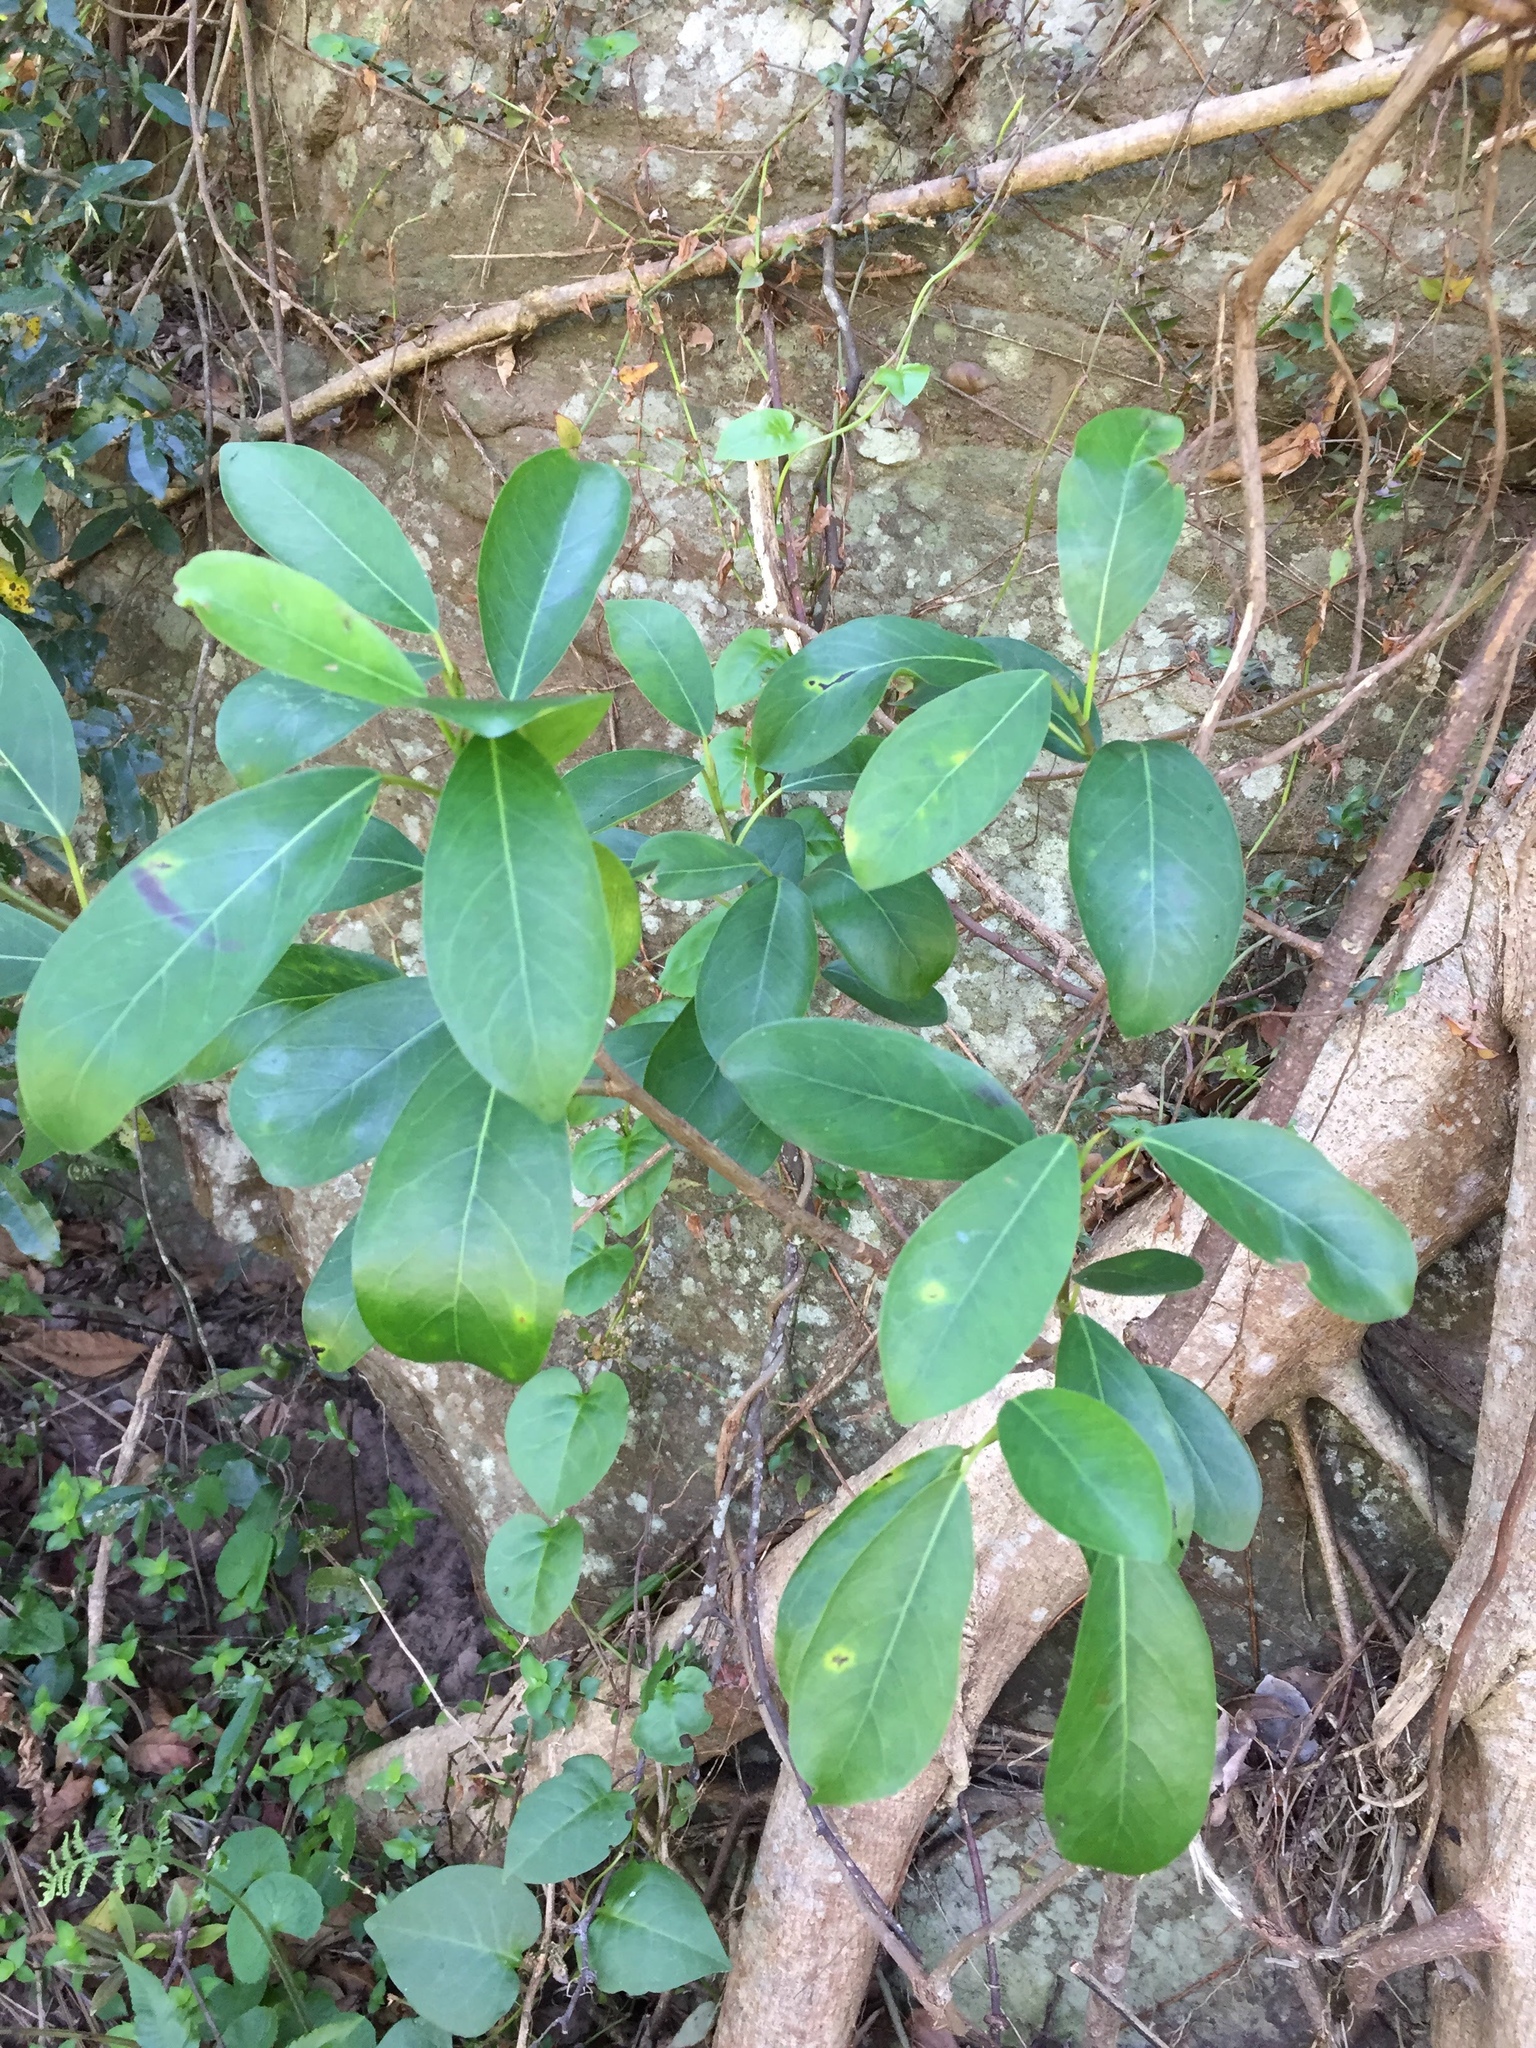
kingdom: Plantae
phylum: Tracheophyta
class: Magnoliopsida
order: Rosales
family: Moraceae
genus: Ficus
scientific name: Ficus thonningii
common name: Fig
